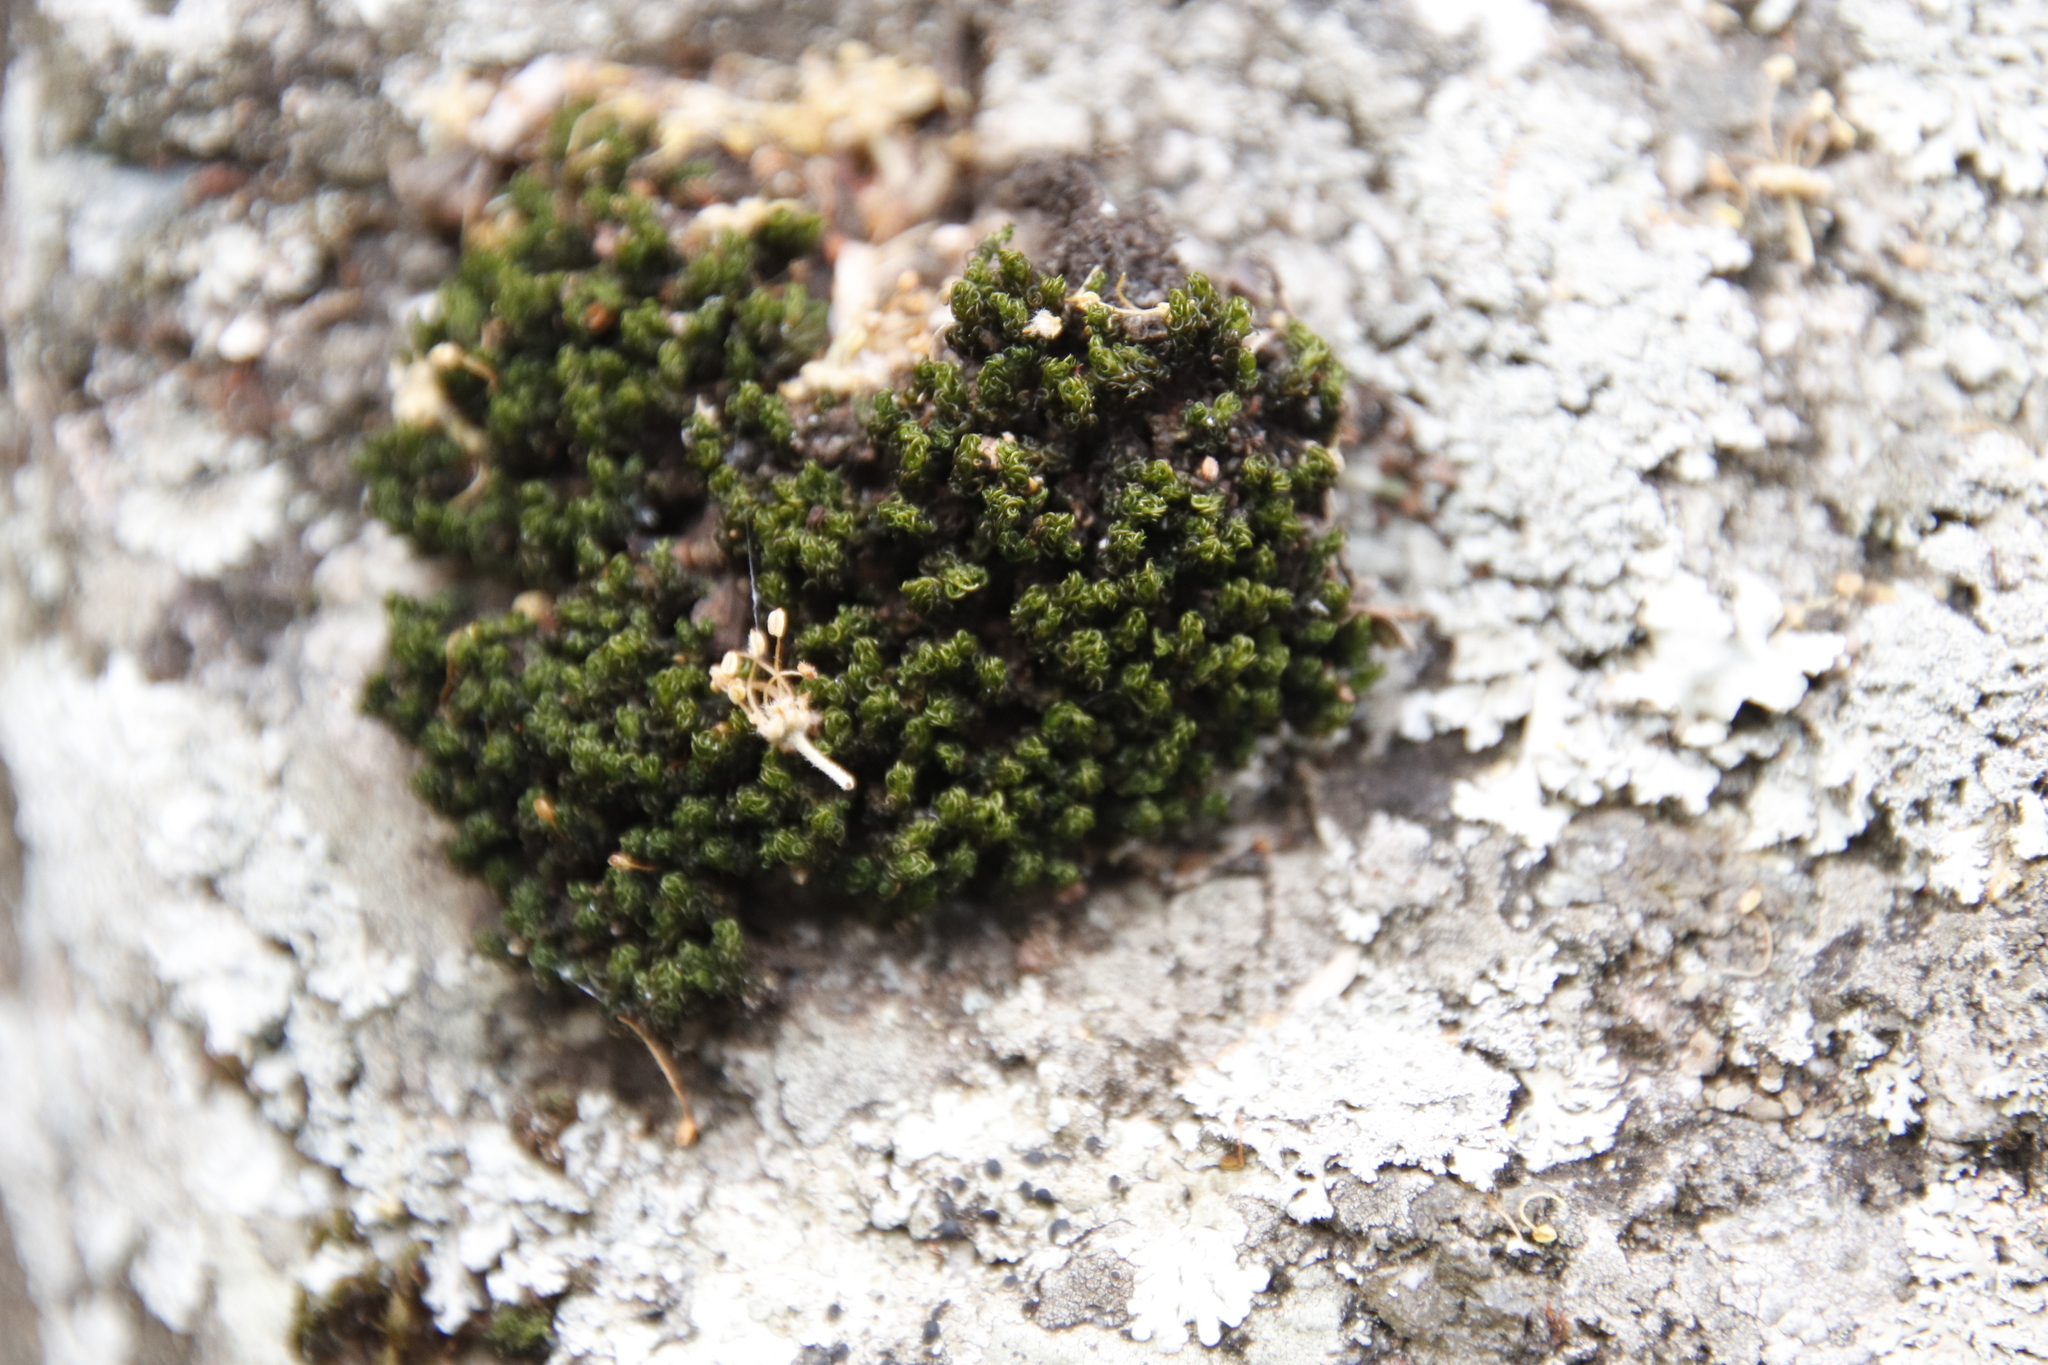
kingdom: Plantae
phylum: Bryophyta
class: Bryopsida
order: Pottiales
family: Pottiaceae
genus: Trichostomum
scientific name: Trichostomum brachydontium
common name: Variable crisp-moss
